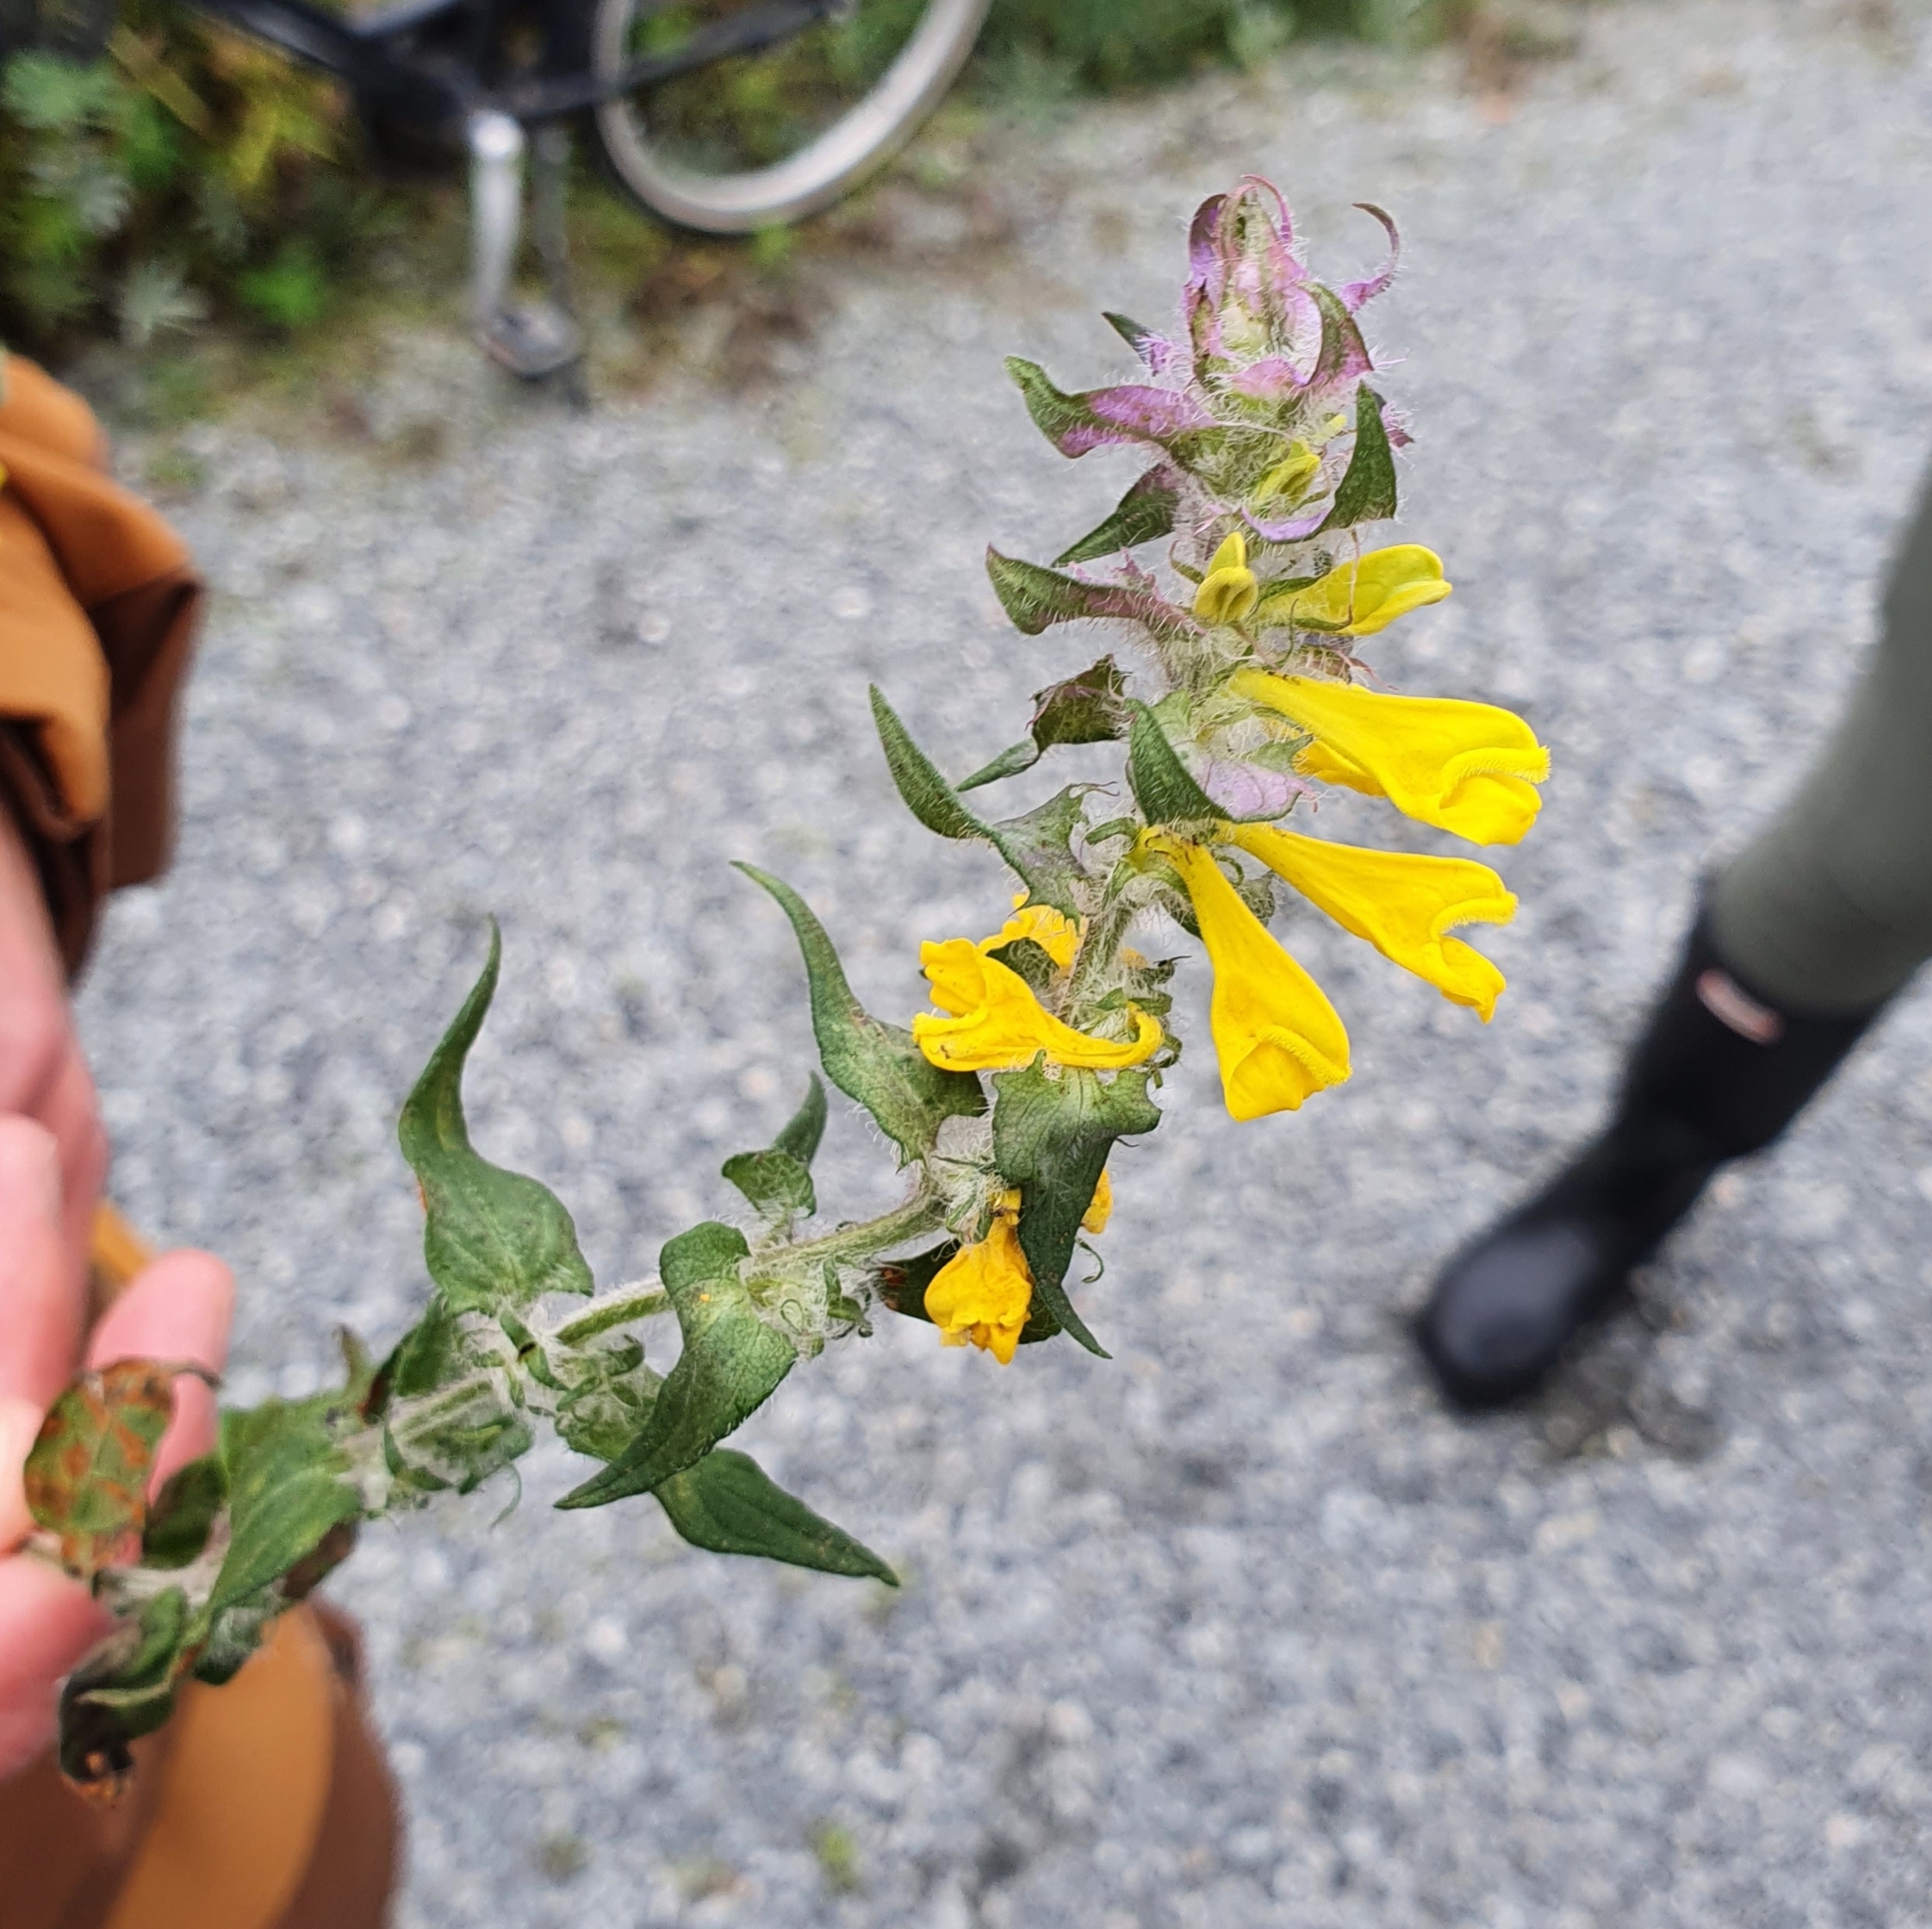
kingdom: Plantae
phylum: Tracheophyta
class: Magnoliopsida
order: Lamiales
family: Orobanchaceae
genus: Melampyrum
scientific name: Melampyrum nemorosum
